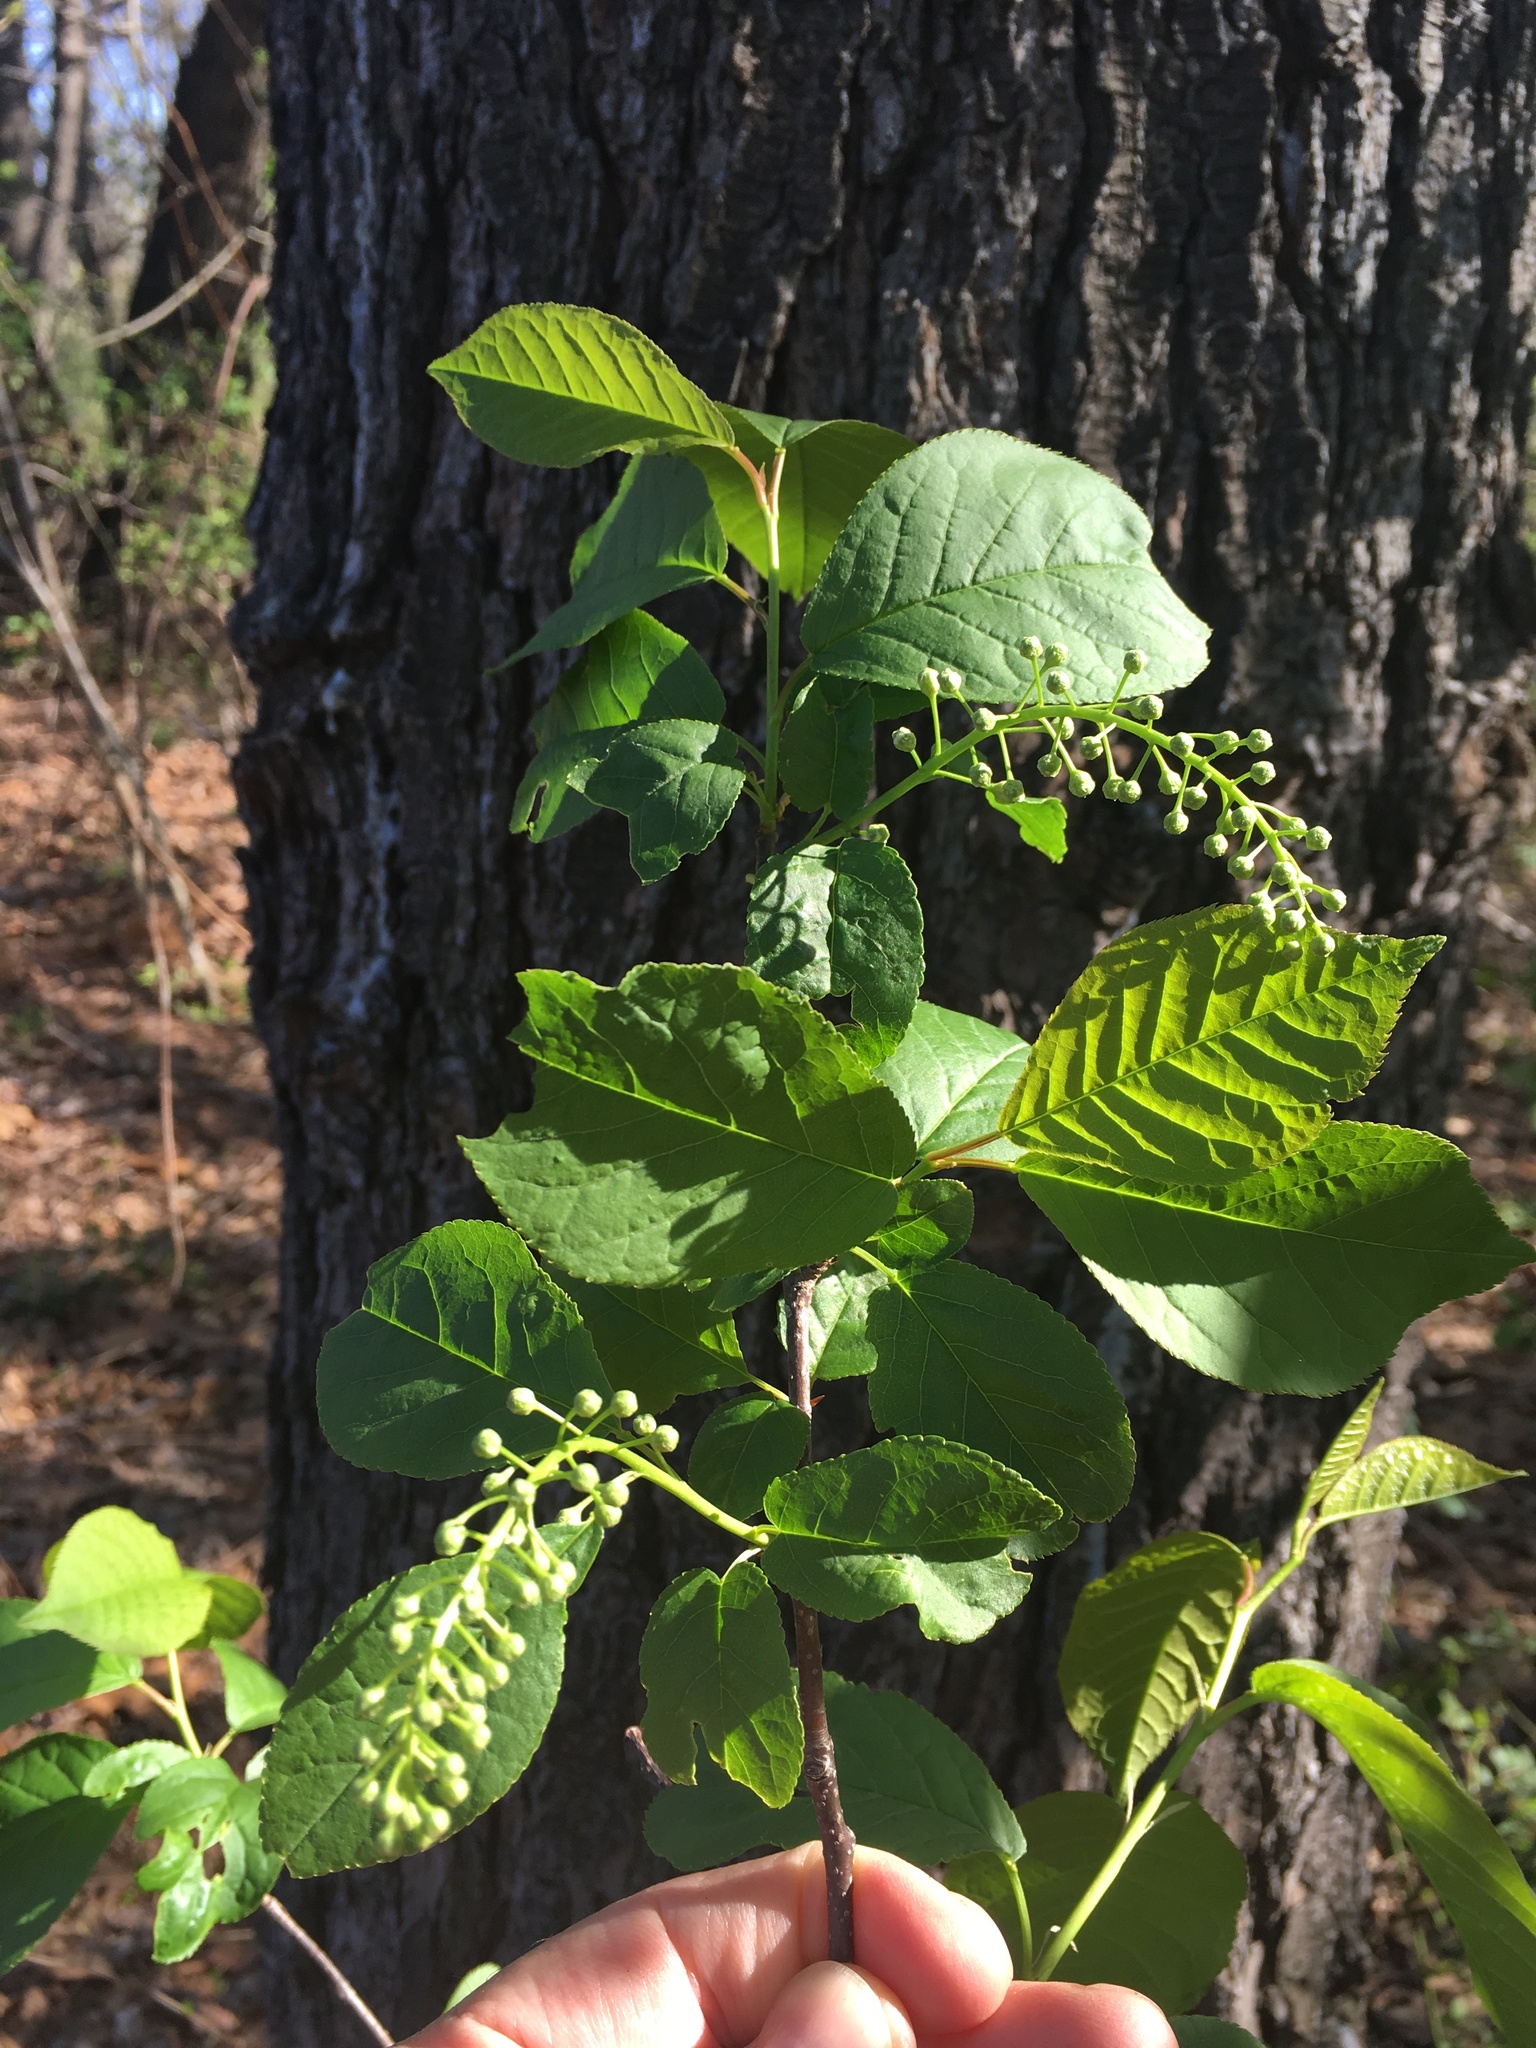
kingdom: Plantae
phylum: Tracheophyta
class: Magnoliopsida
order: Rosales
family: Rosaceae
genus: Prunus
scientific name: Prunus virginiana
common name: Chokecherry
